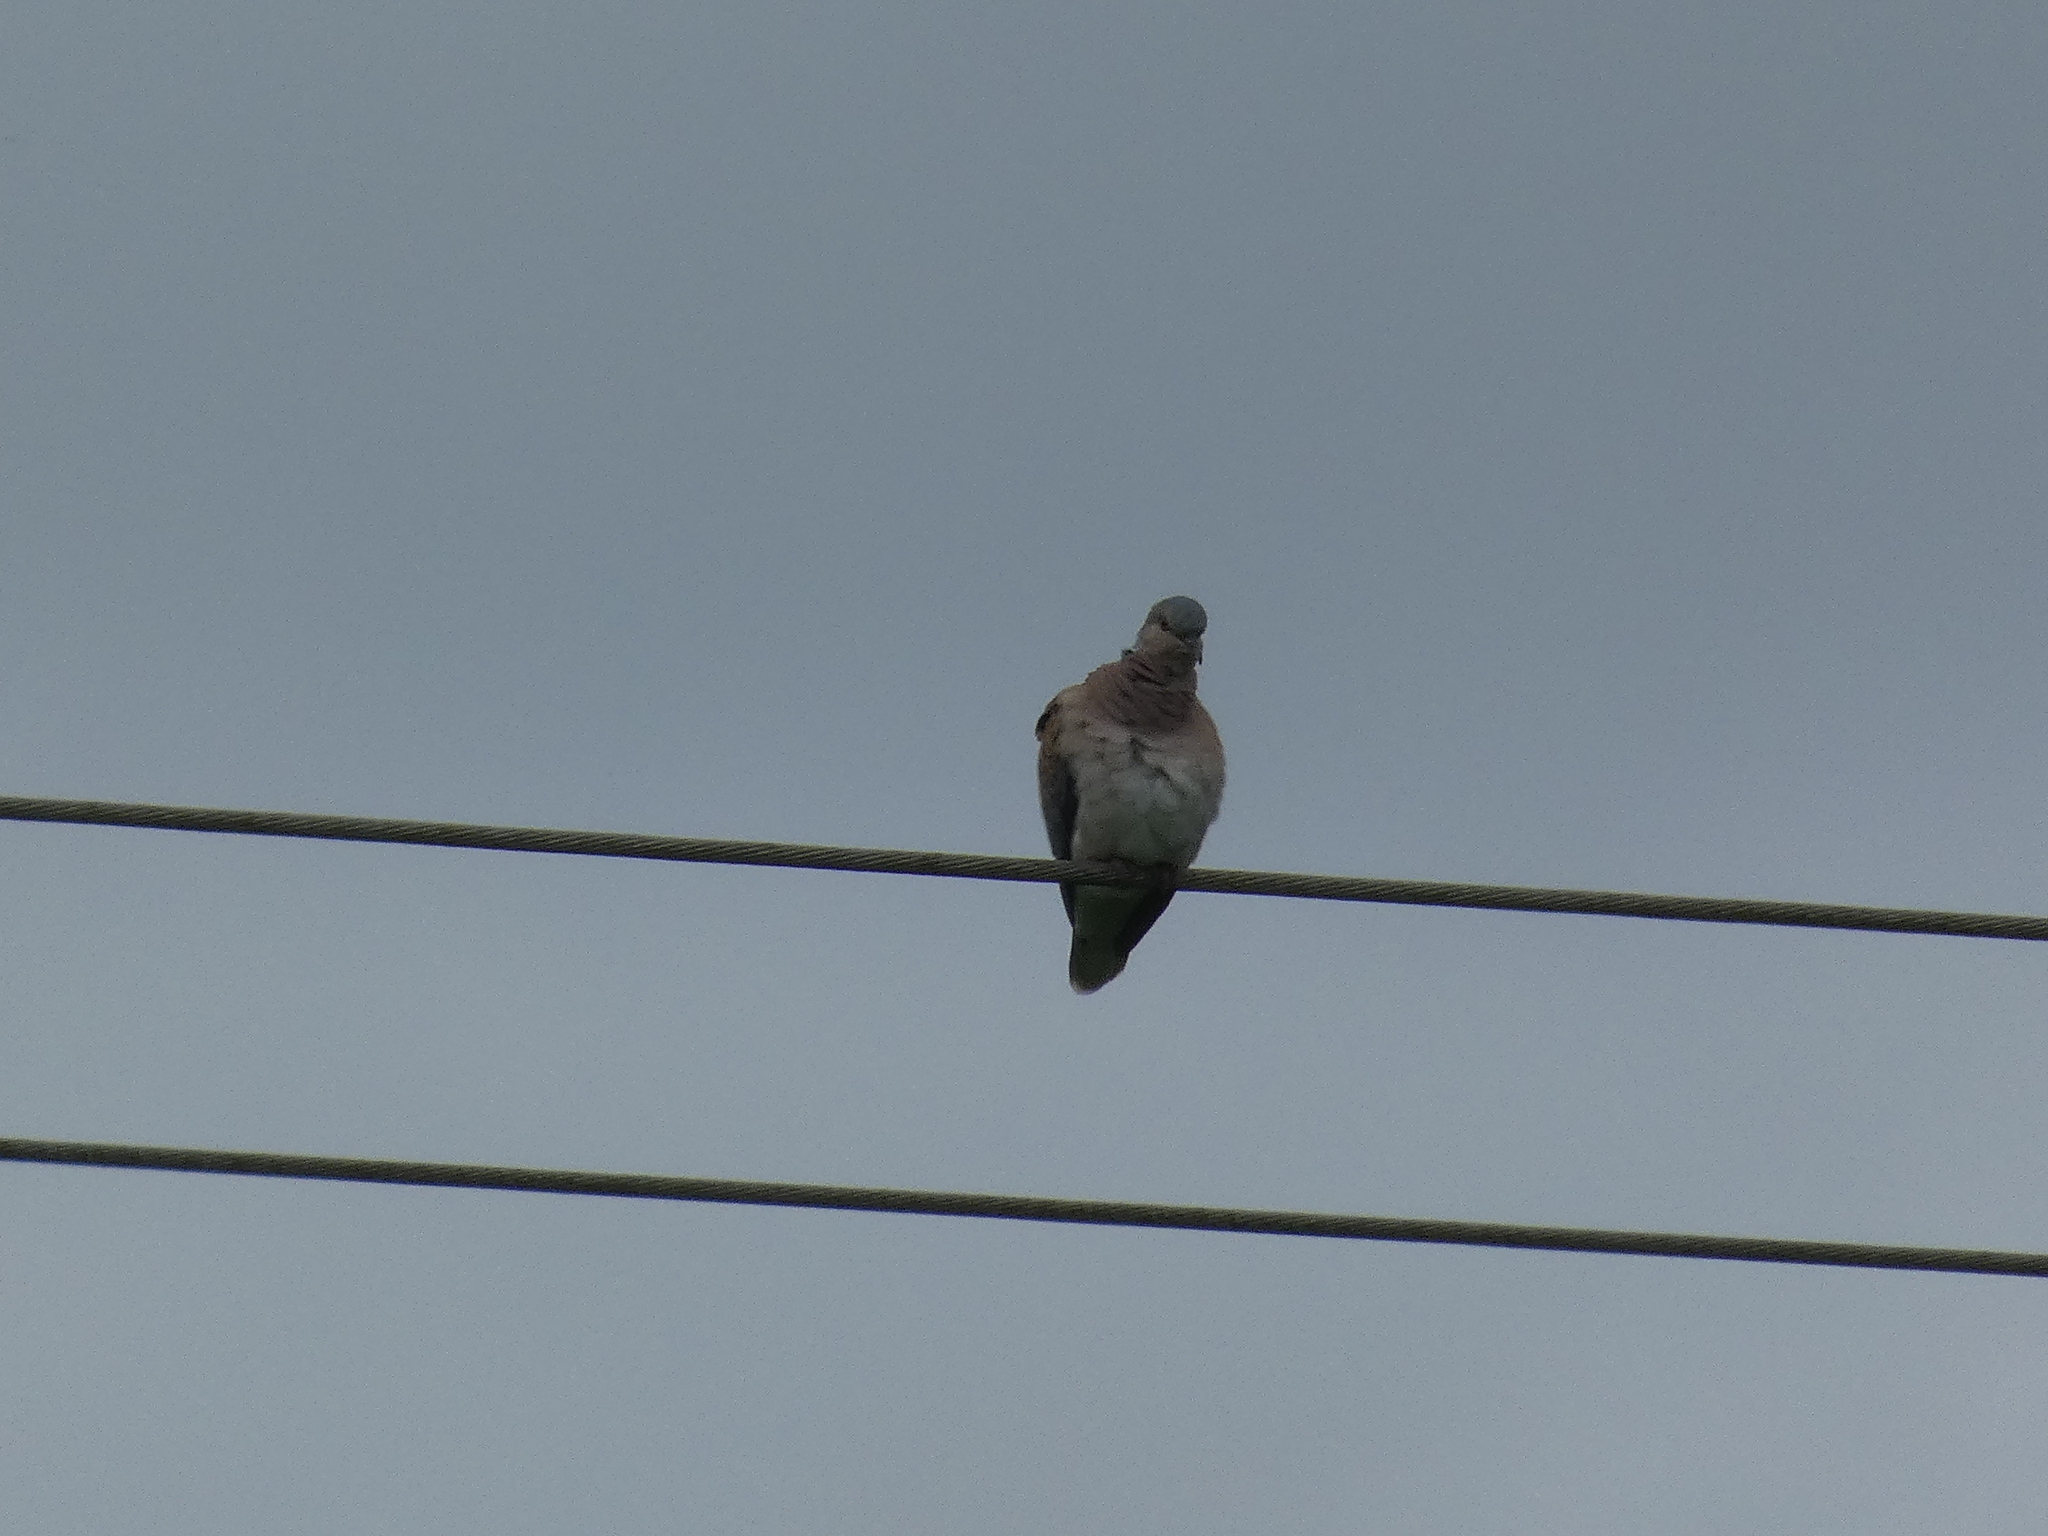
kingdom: Animalia
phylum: Chordata
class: Aves
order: Columbiformes
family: Columbidae
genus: Streptopelia
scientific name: Streptopelia turtur
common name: European turtle dove
